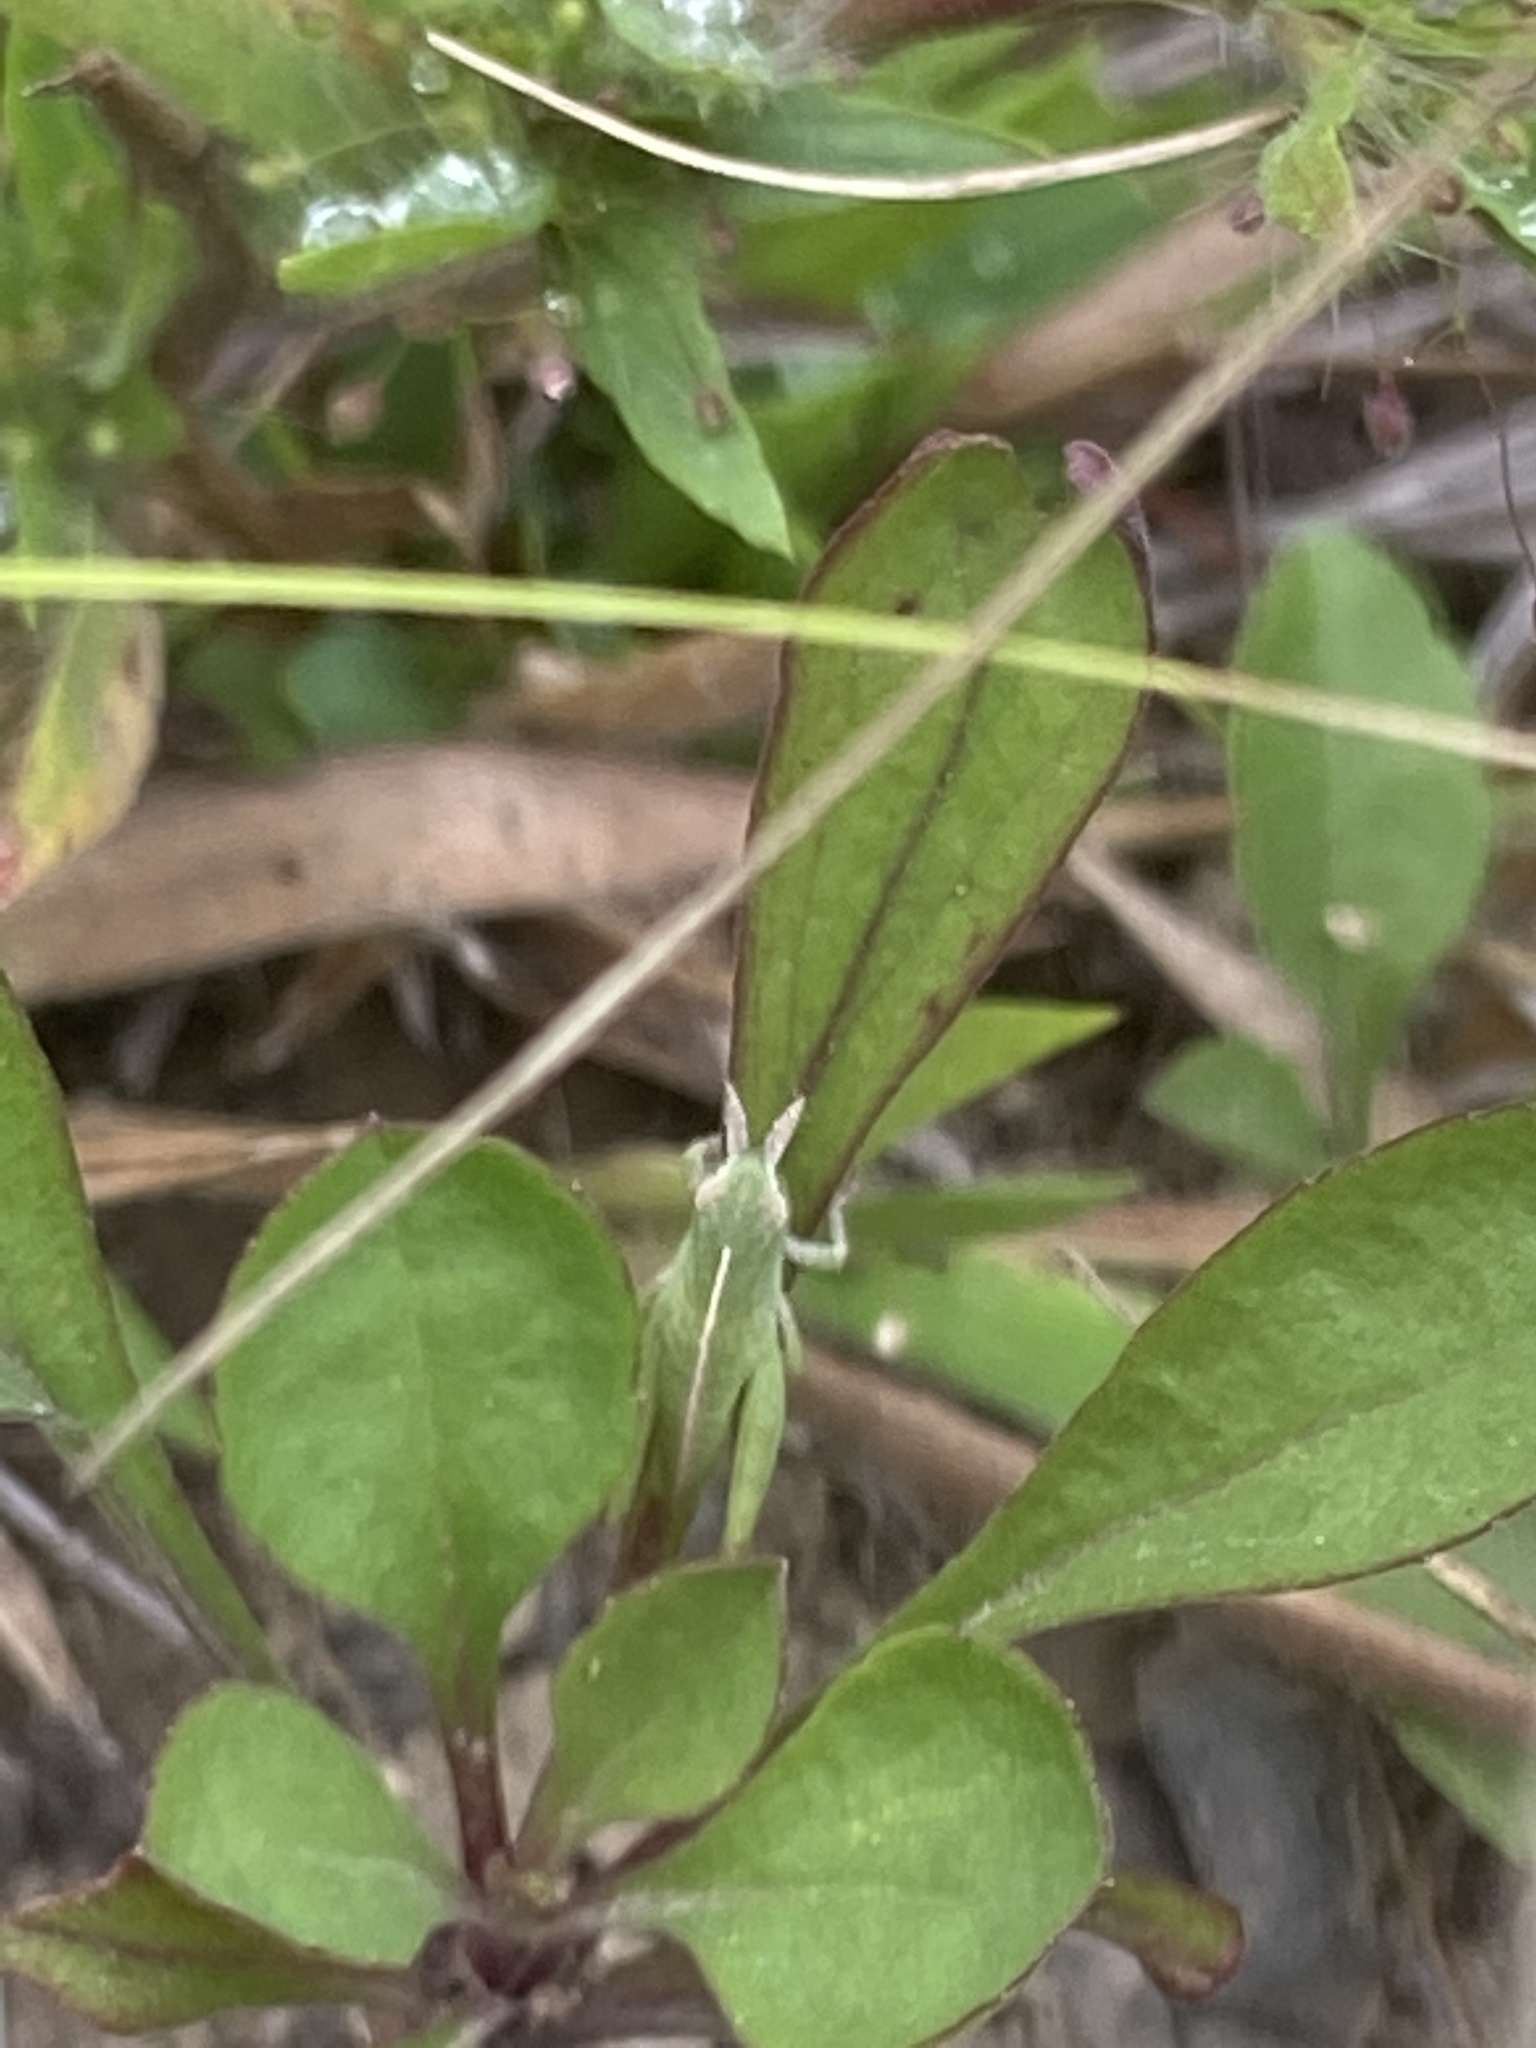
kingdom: Animalia
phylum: Arthropoda
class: Insecta
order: Orthoptera
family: Acrididae
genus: Chortophaga
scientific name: Chortophaga viridifasciata
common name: Green-striped grasshopper
